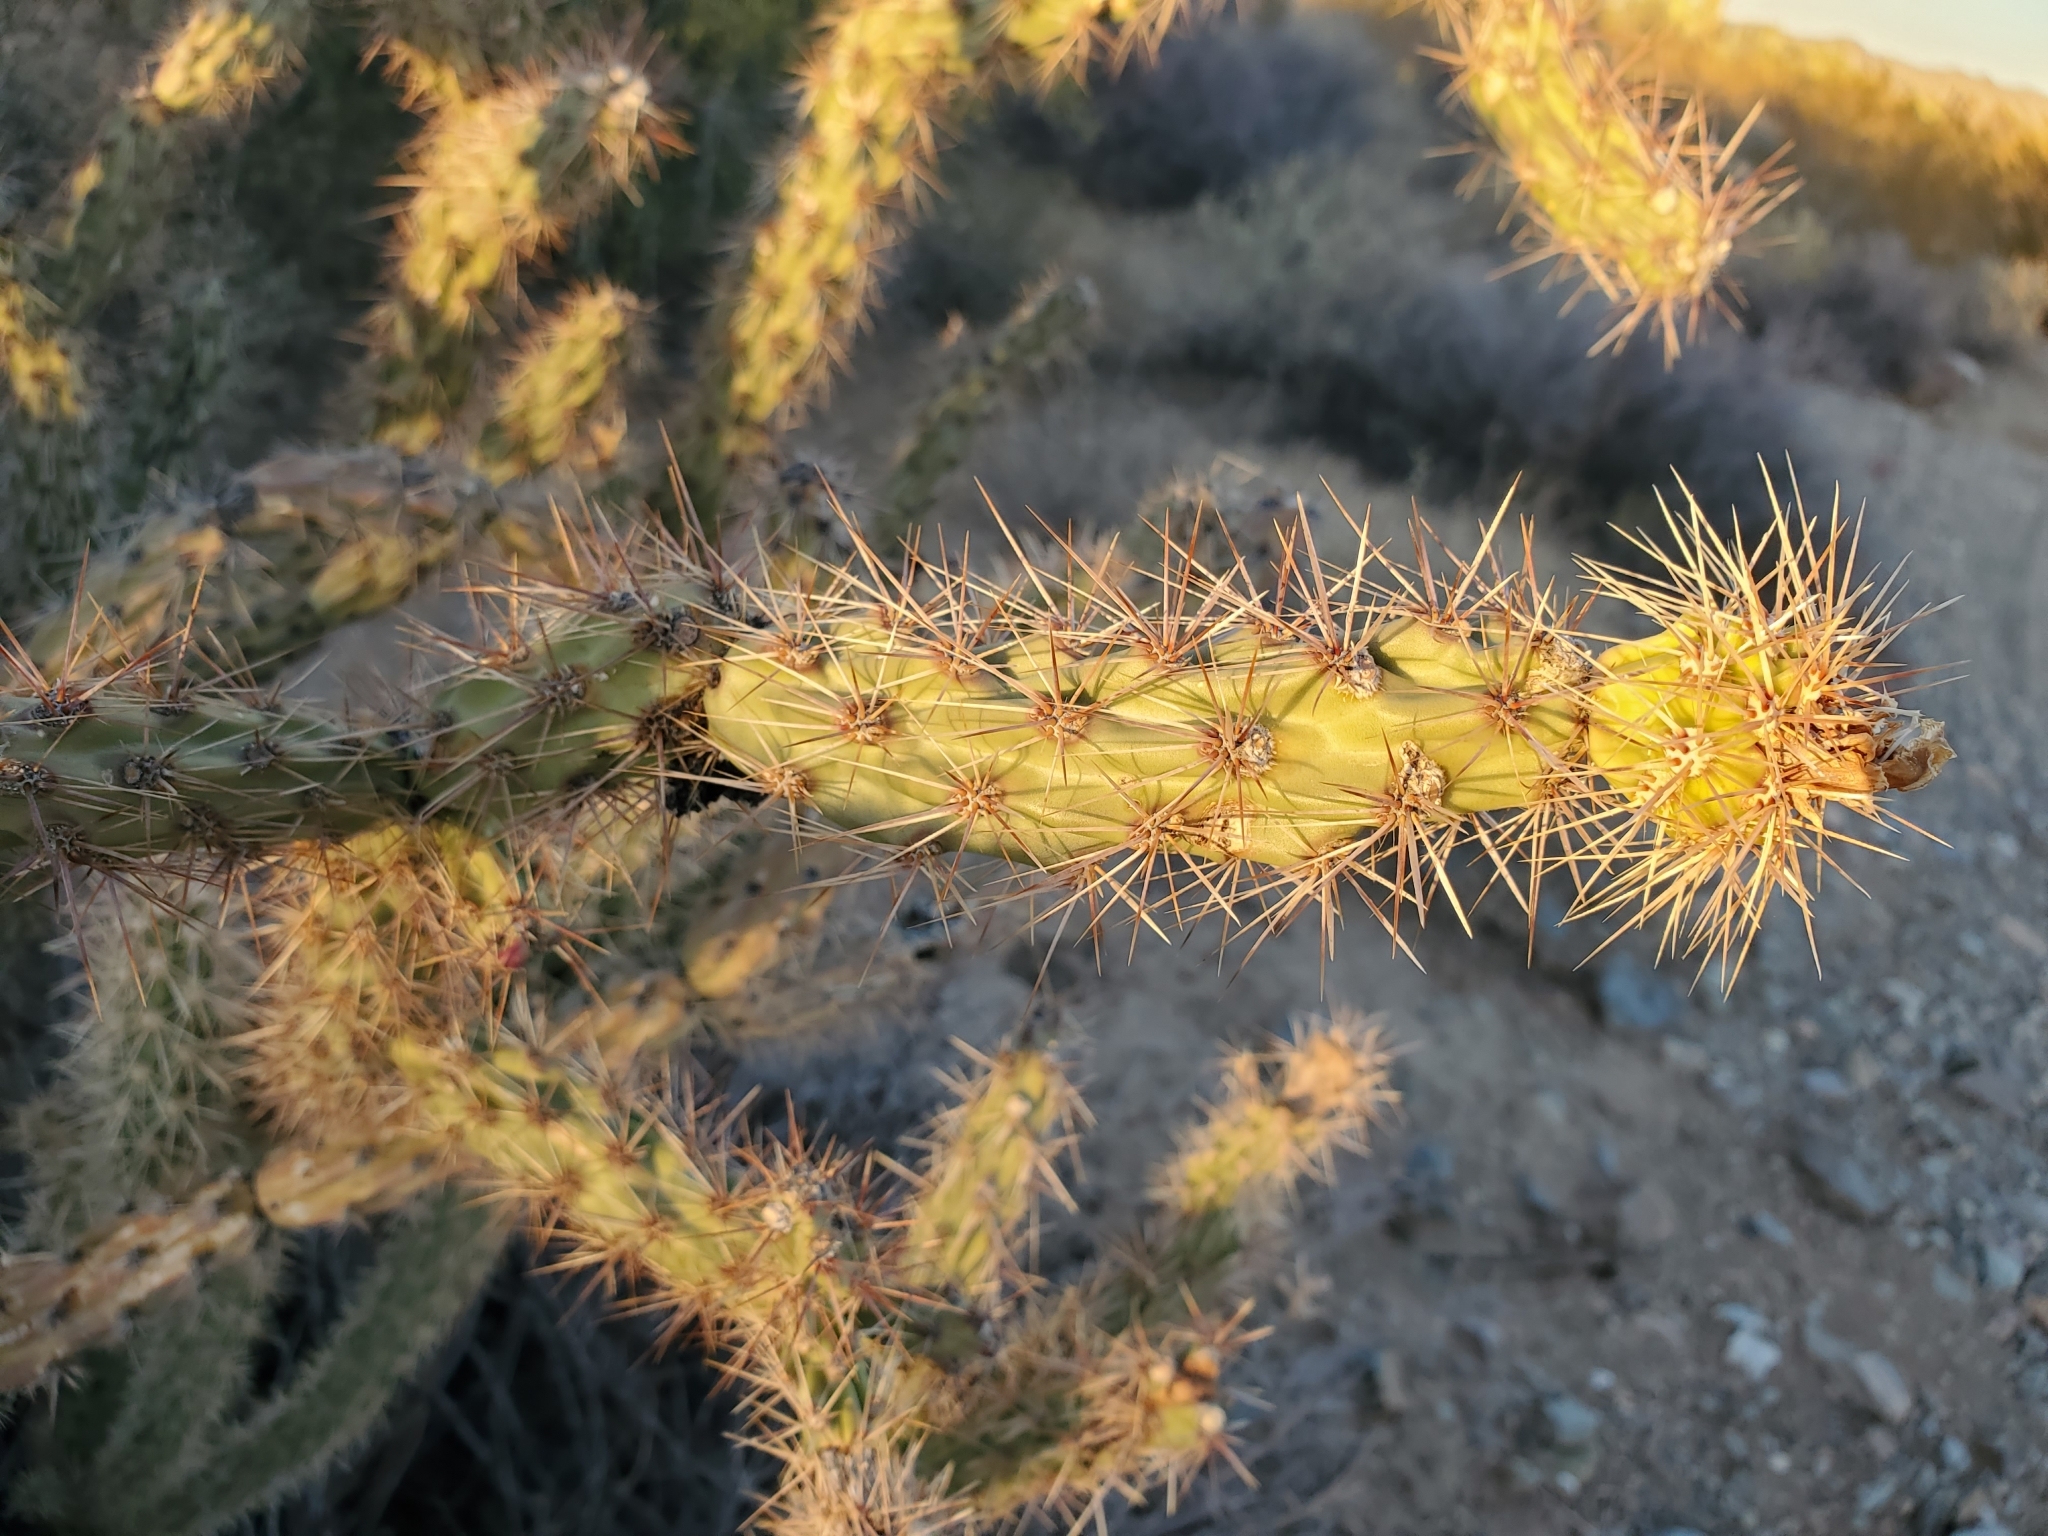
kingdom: Plantae
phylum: Tracheophyta
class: Magnoliopsida
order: Caryophyllales
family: Cactaceae
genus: Cylindropuntia
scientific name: Cylindropuntia acanthocarpa
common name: Buckhorn cholla
